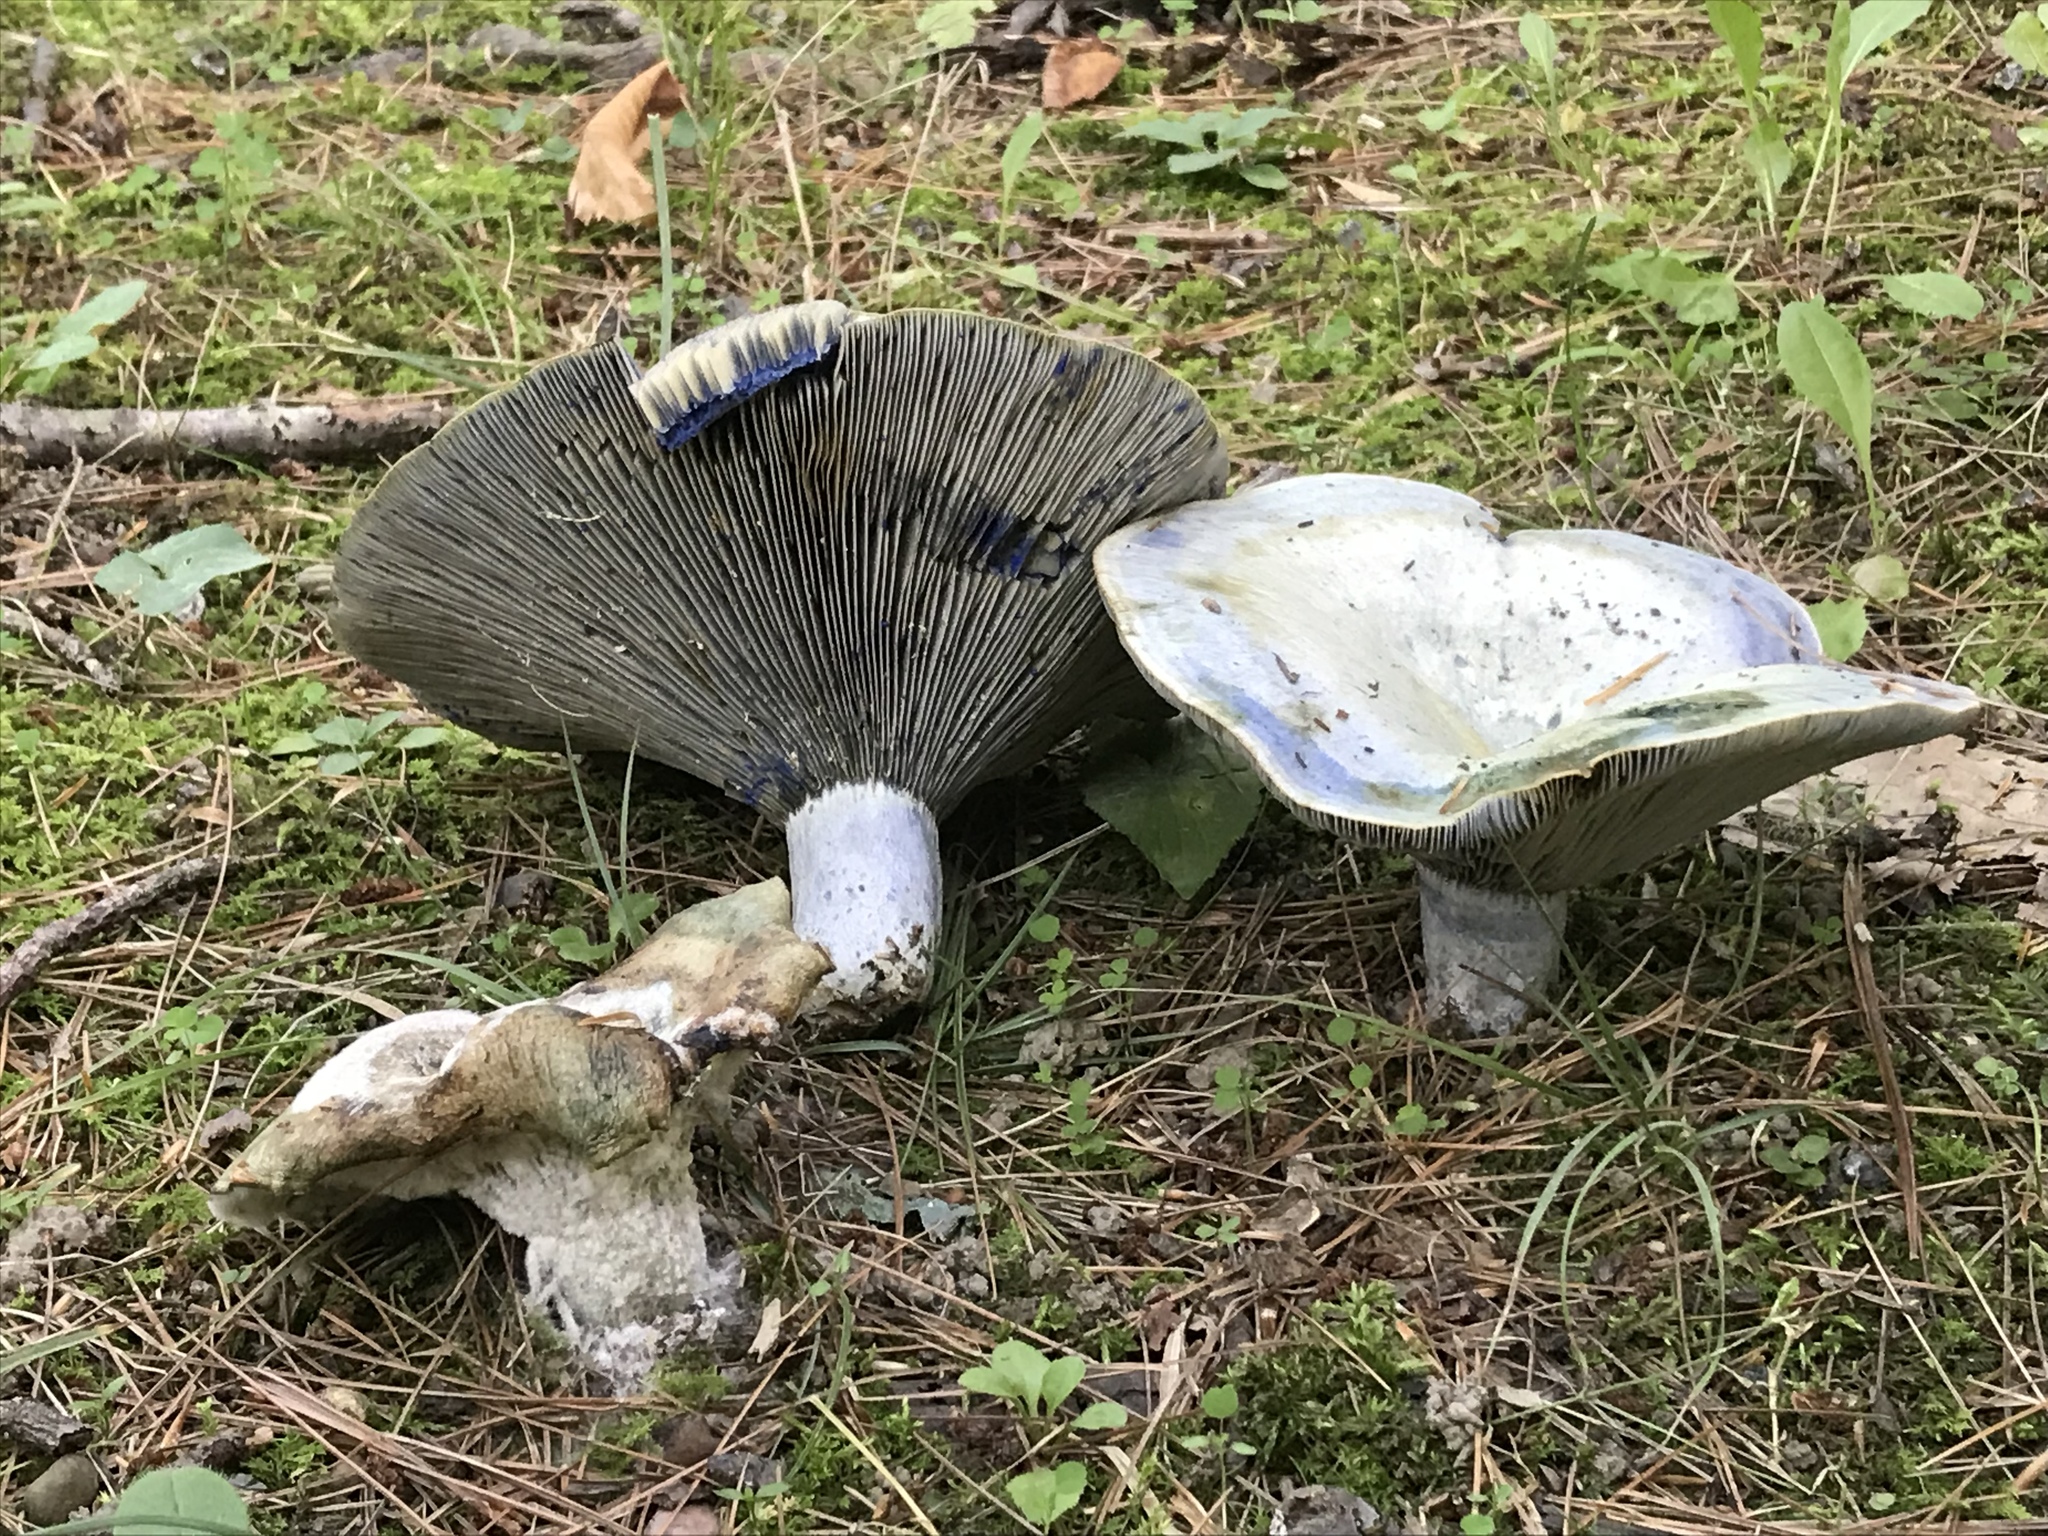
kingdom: Fungi
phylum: Basidiomycota
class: Agaricomycetes
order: Russulales
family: Russulaceae
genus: Lactarius
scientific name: Lactarius indigo
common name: Indigo milk cap
